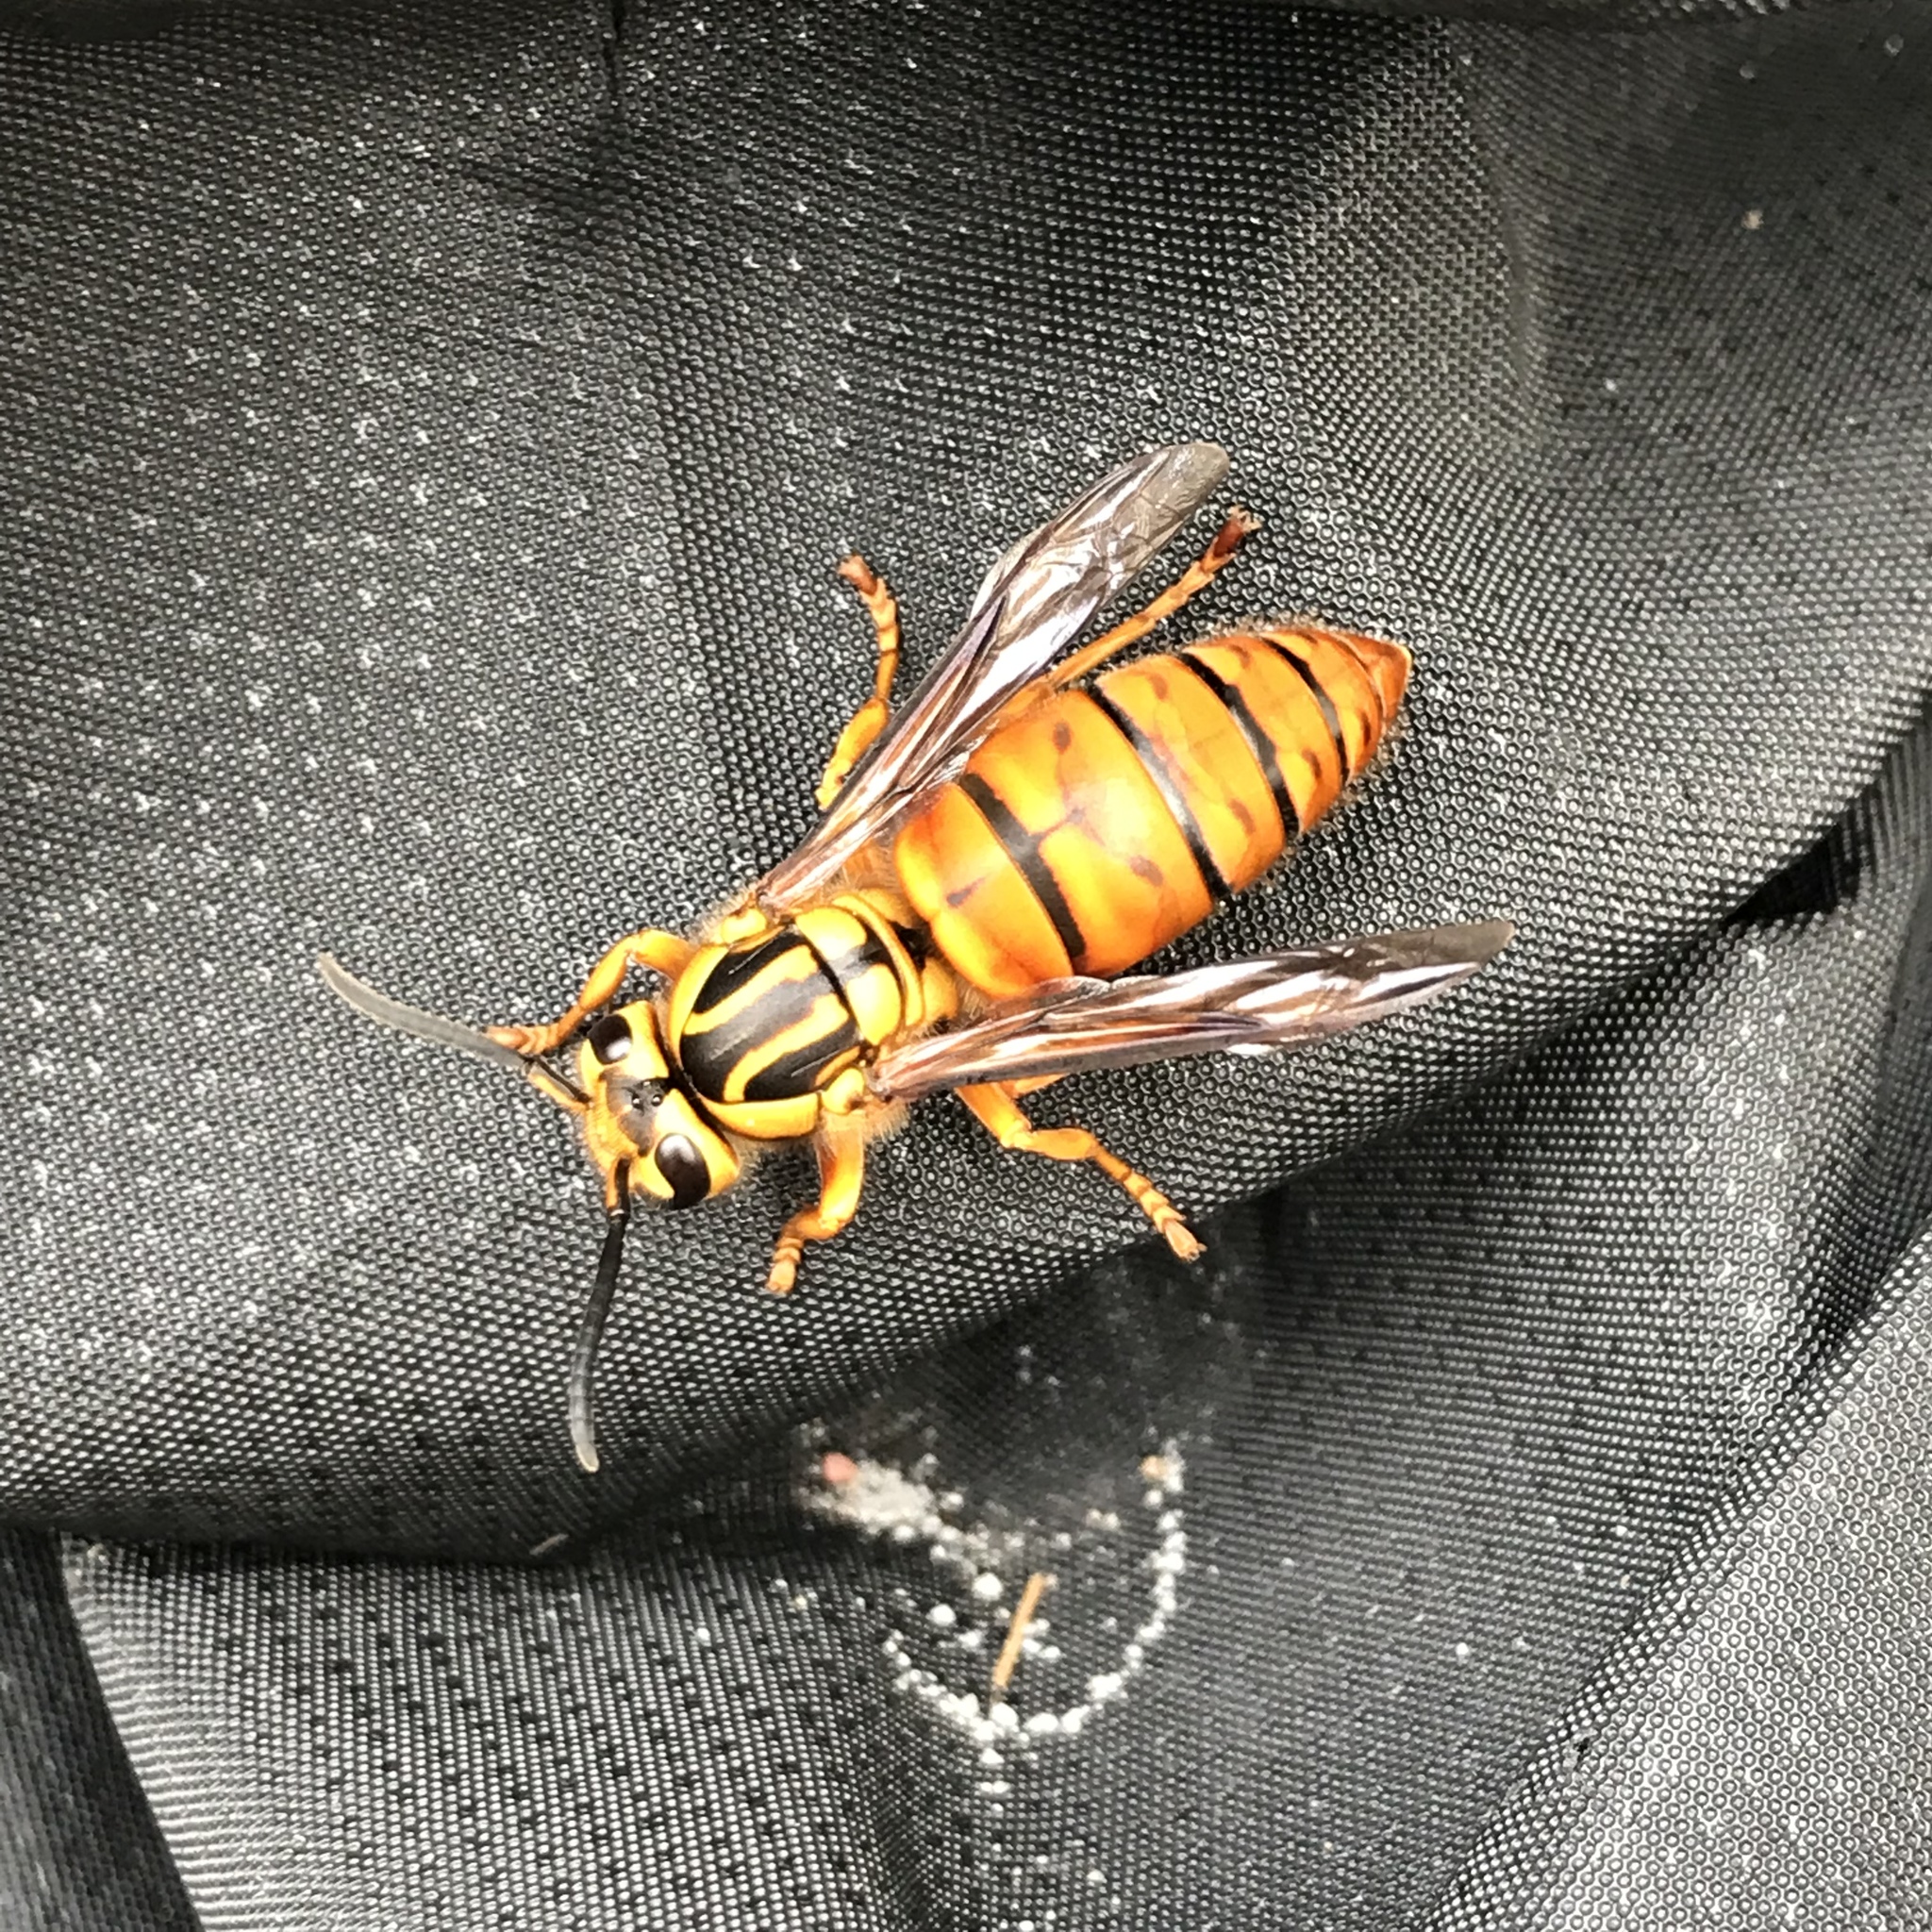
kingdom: Animalia
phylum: Arthropoda
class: Insecta
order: Hymenoptera
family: Vespidae
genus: Vespula
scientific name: Vespula squamosa
